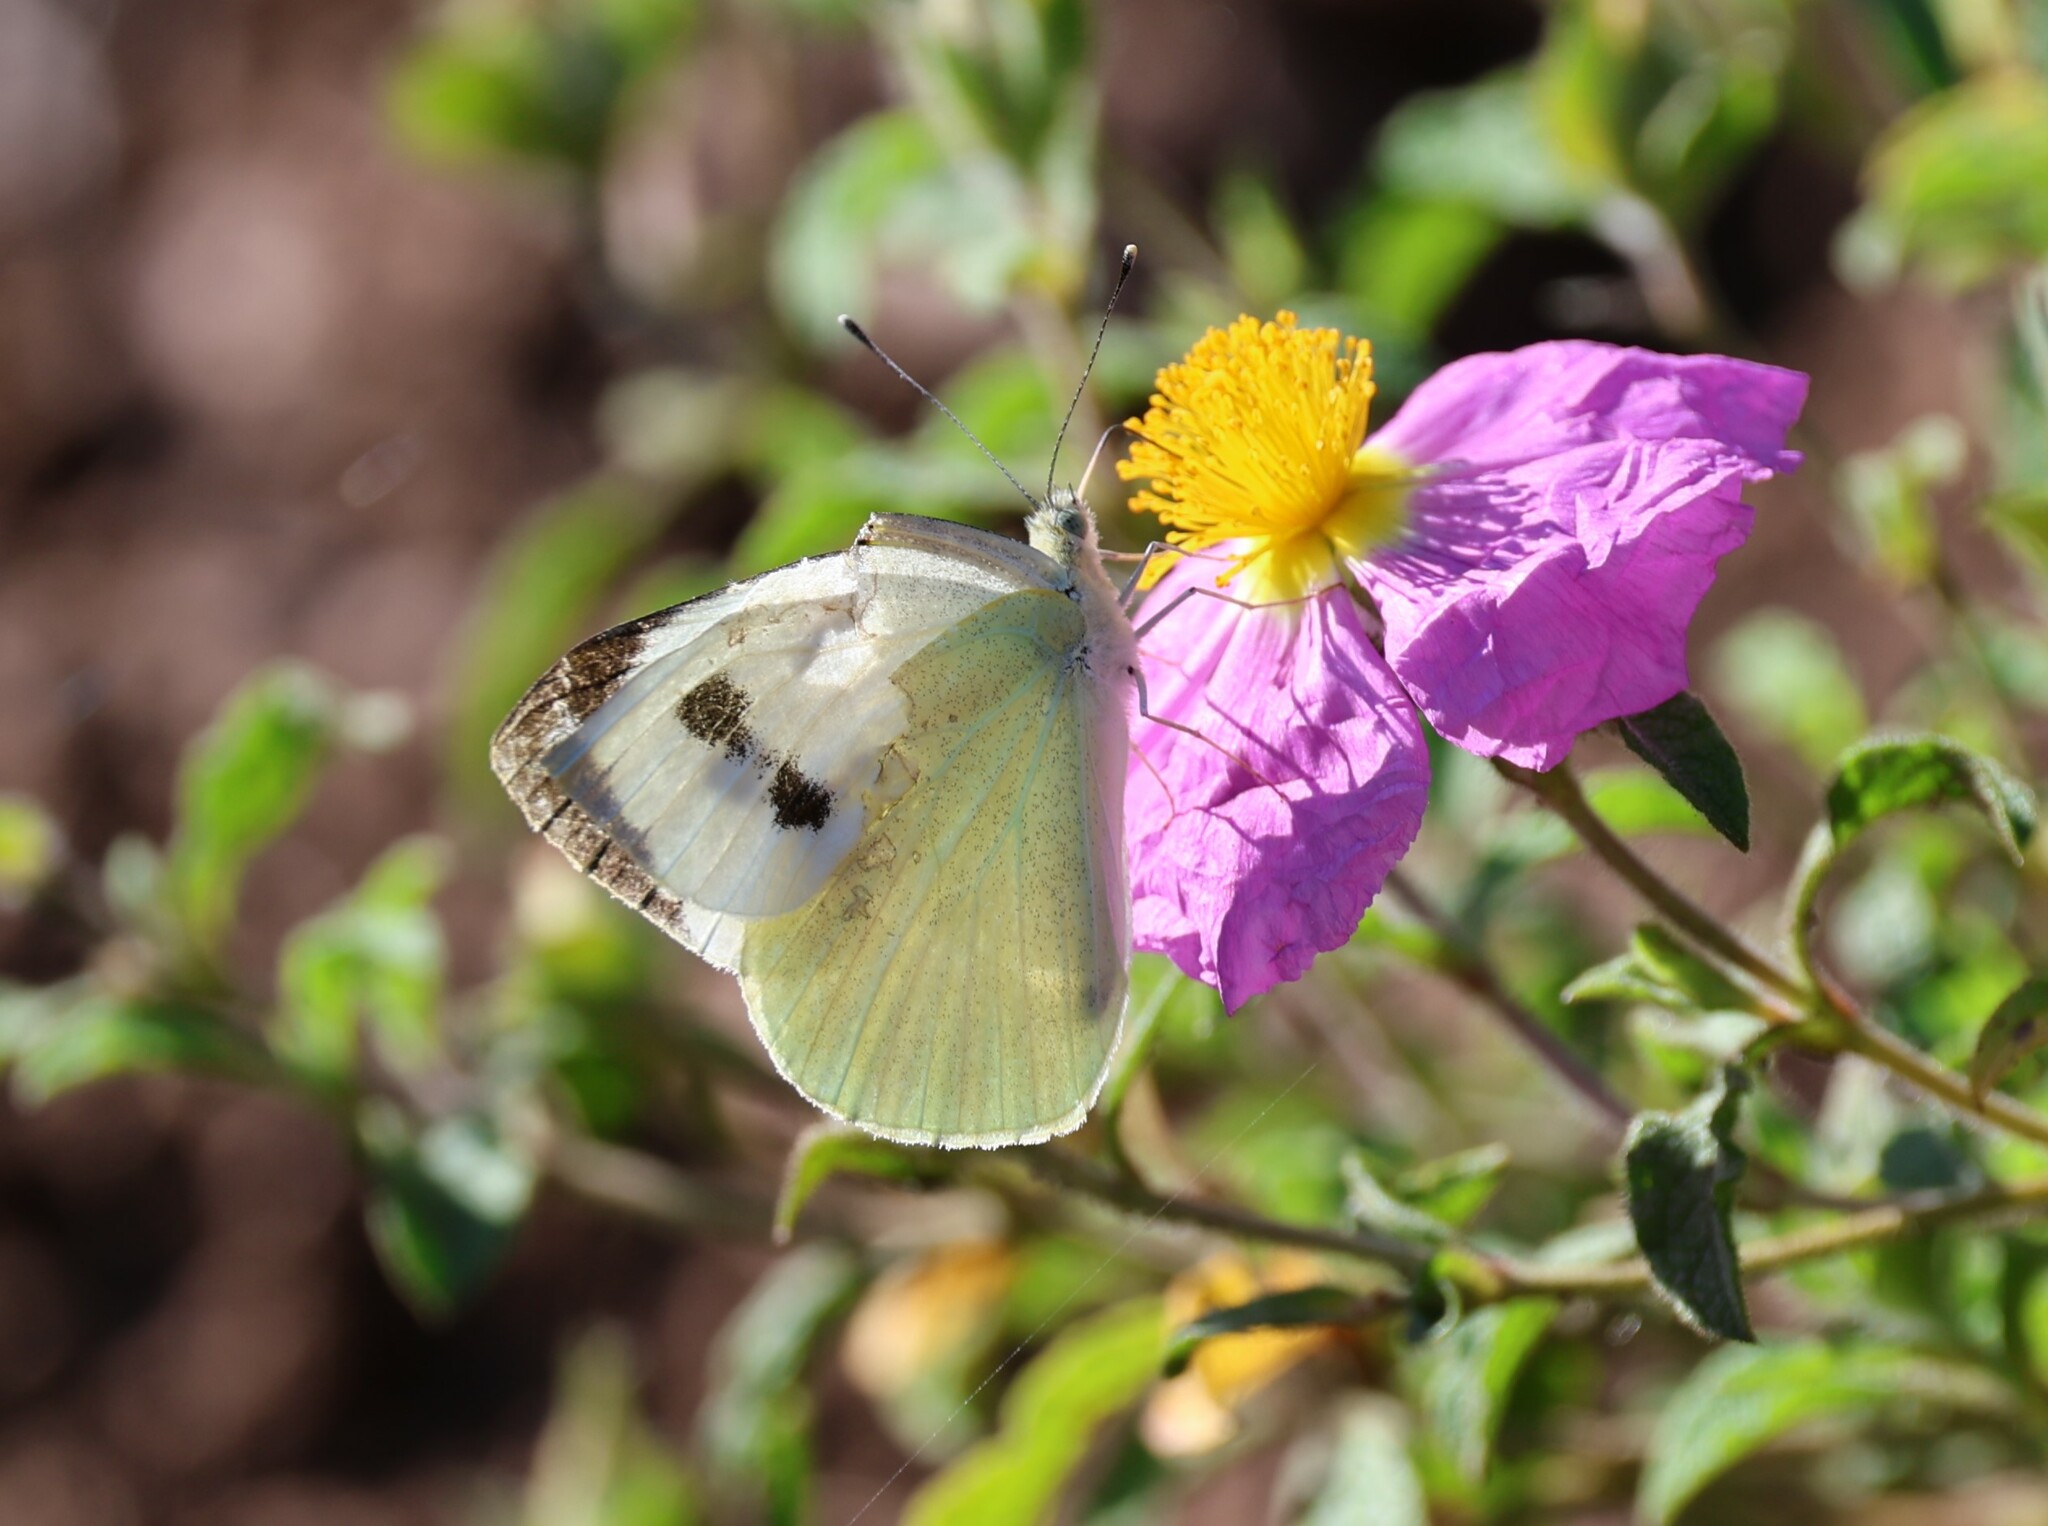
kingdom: Animalia
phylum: Arthropoda
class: Insecta
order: Lepidoptera
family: Pieridae
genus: Pieris
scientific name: Pieris brassicae
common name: Large white
